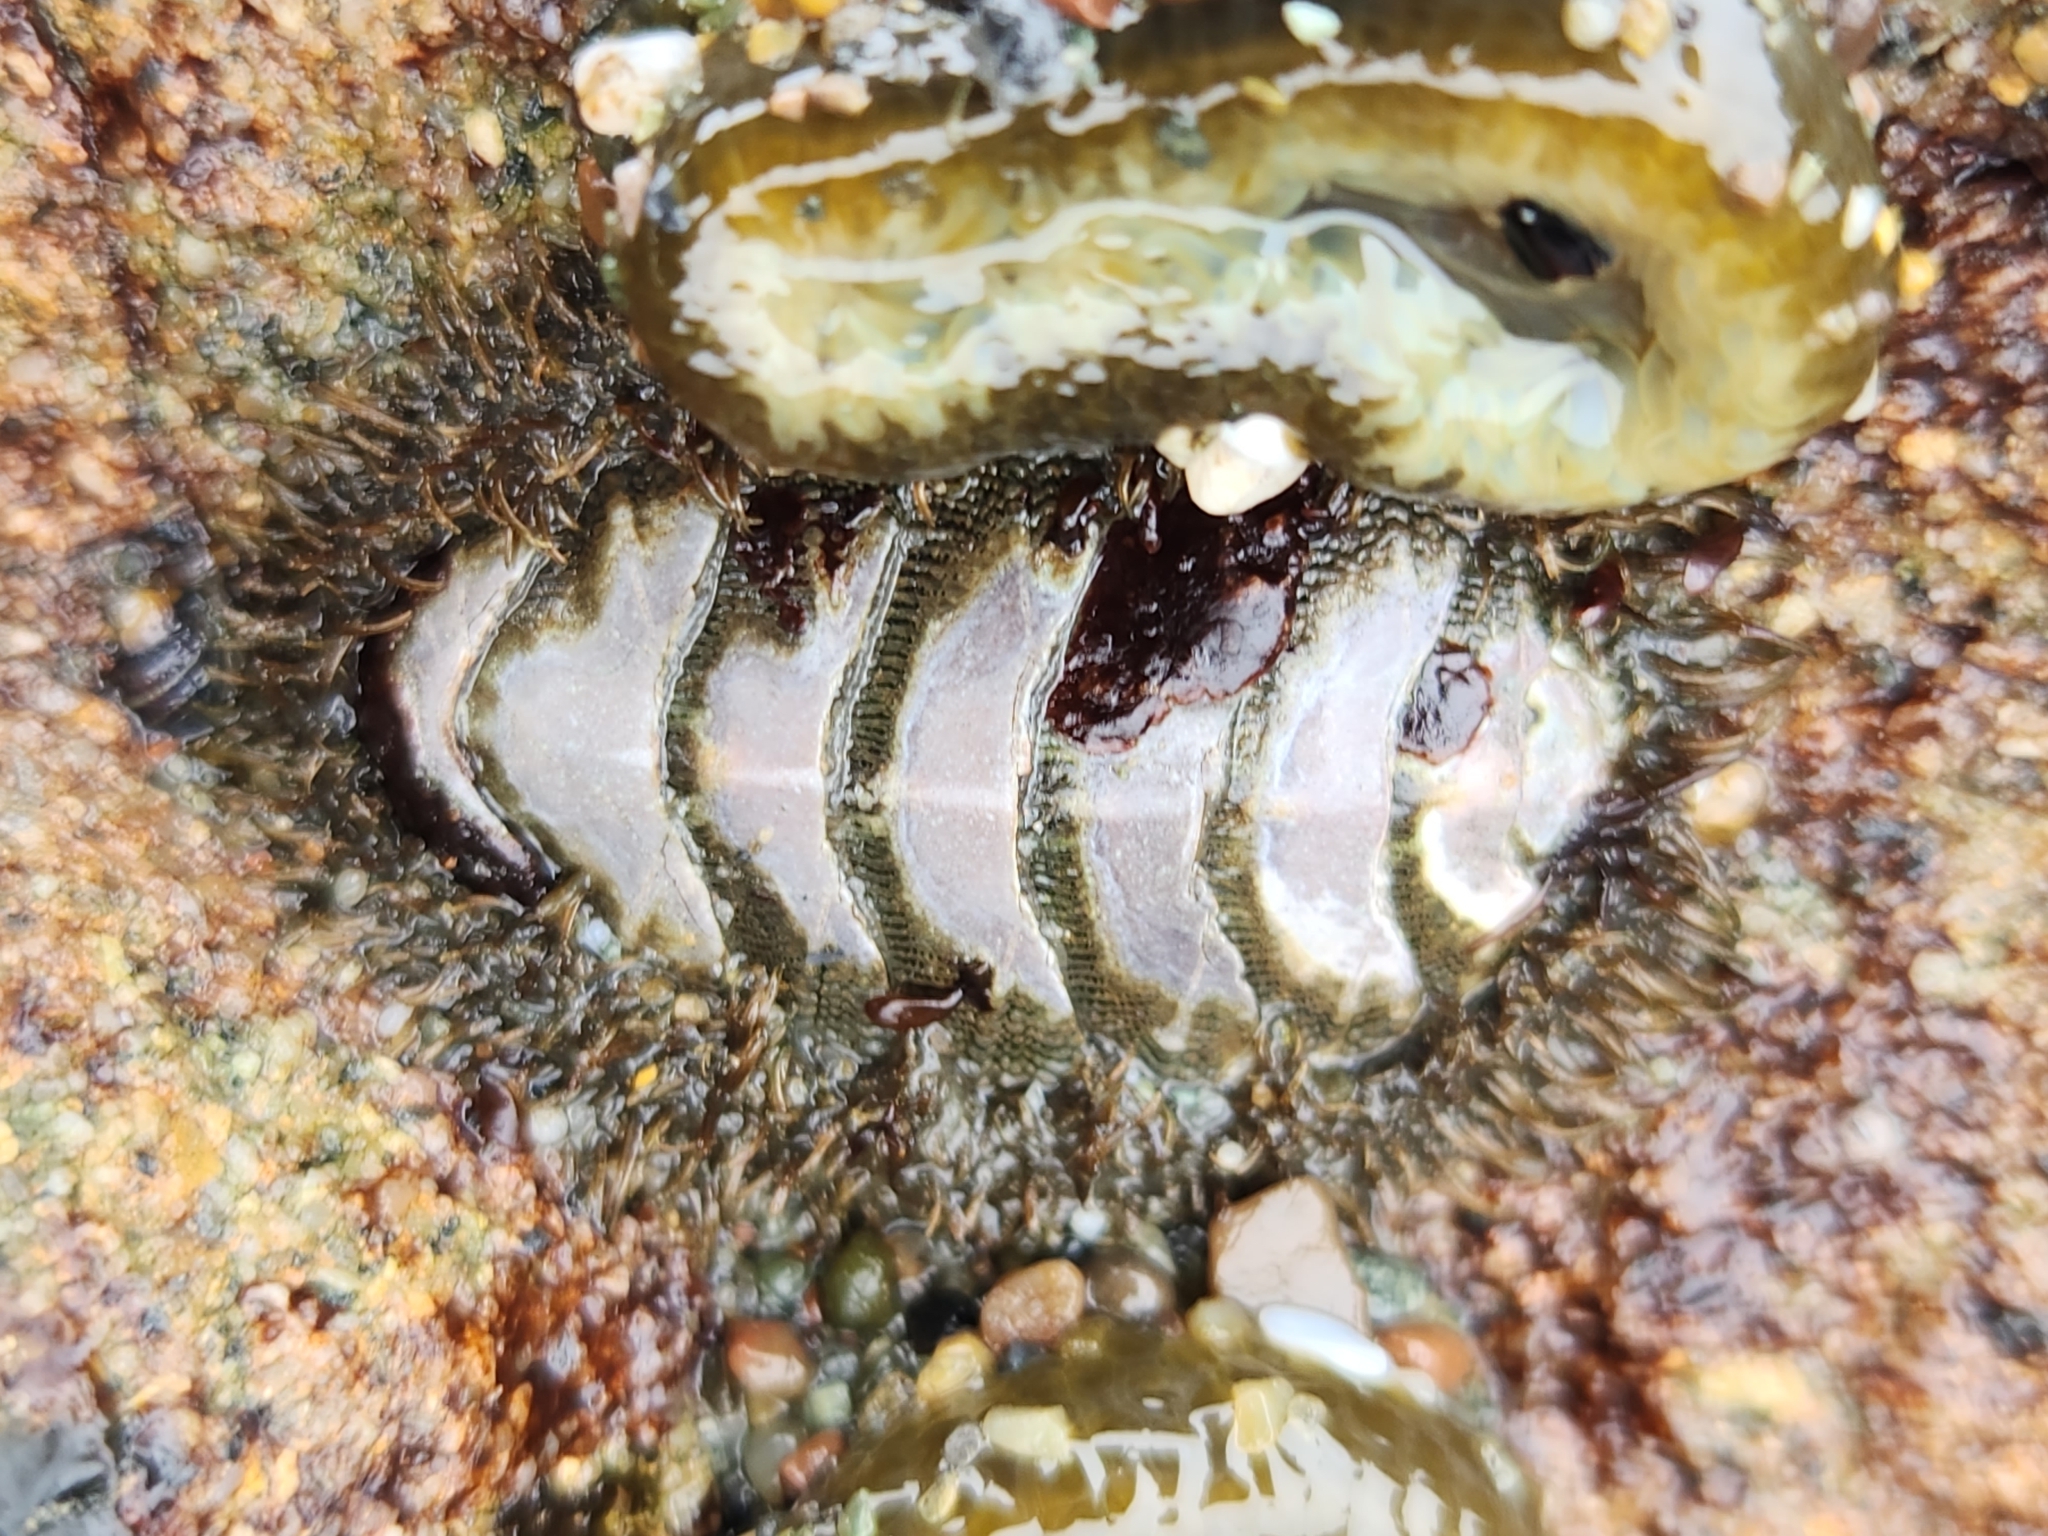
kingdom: Animalia
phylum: Mollusca
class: Polyplacophora
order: Chitonida
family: Mopaliidae
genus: Mopalia
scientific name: Mopalia muscosa
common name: Mossy chiton
